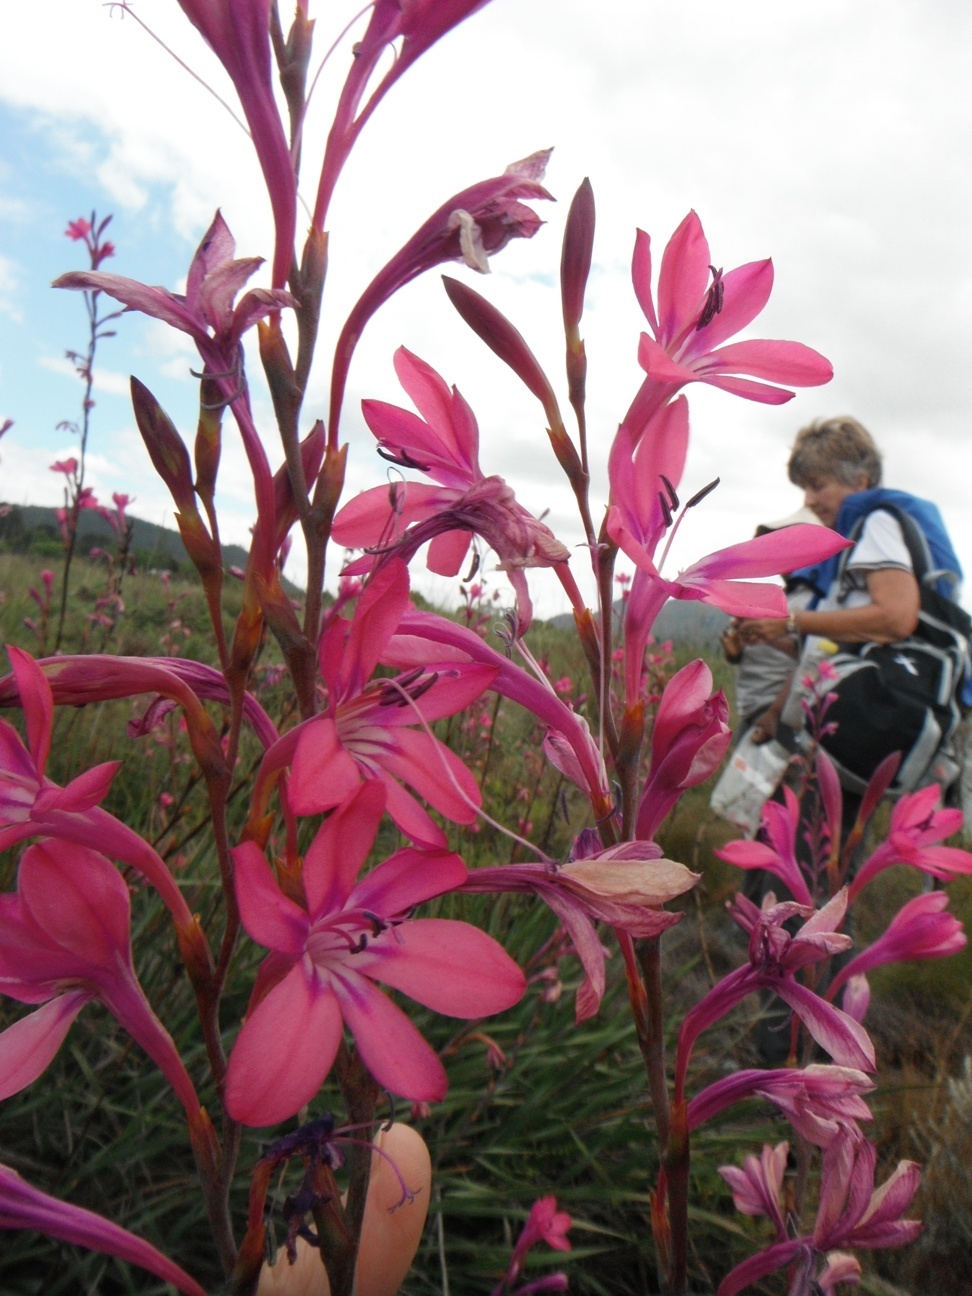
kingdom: Plantae
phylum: Tracheophyta
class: Liliopsida
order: Asparagales
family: Iridaceae
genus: Watsonia
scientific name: Watsonia rogersii
